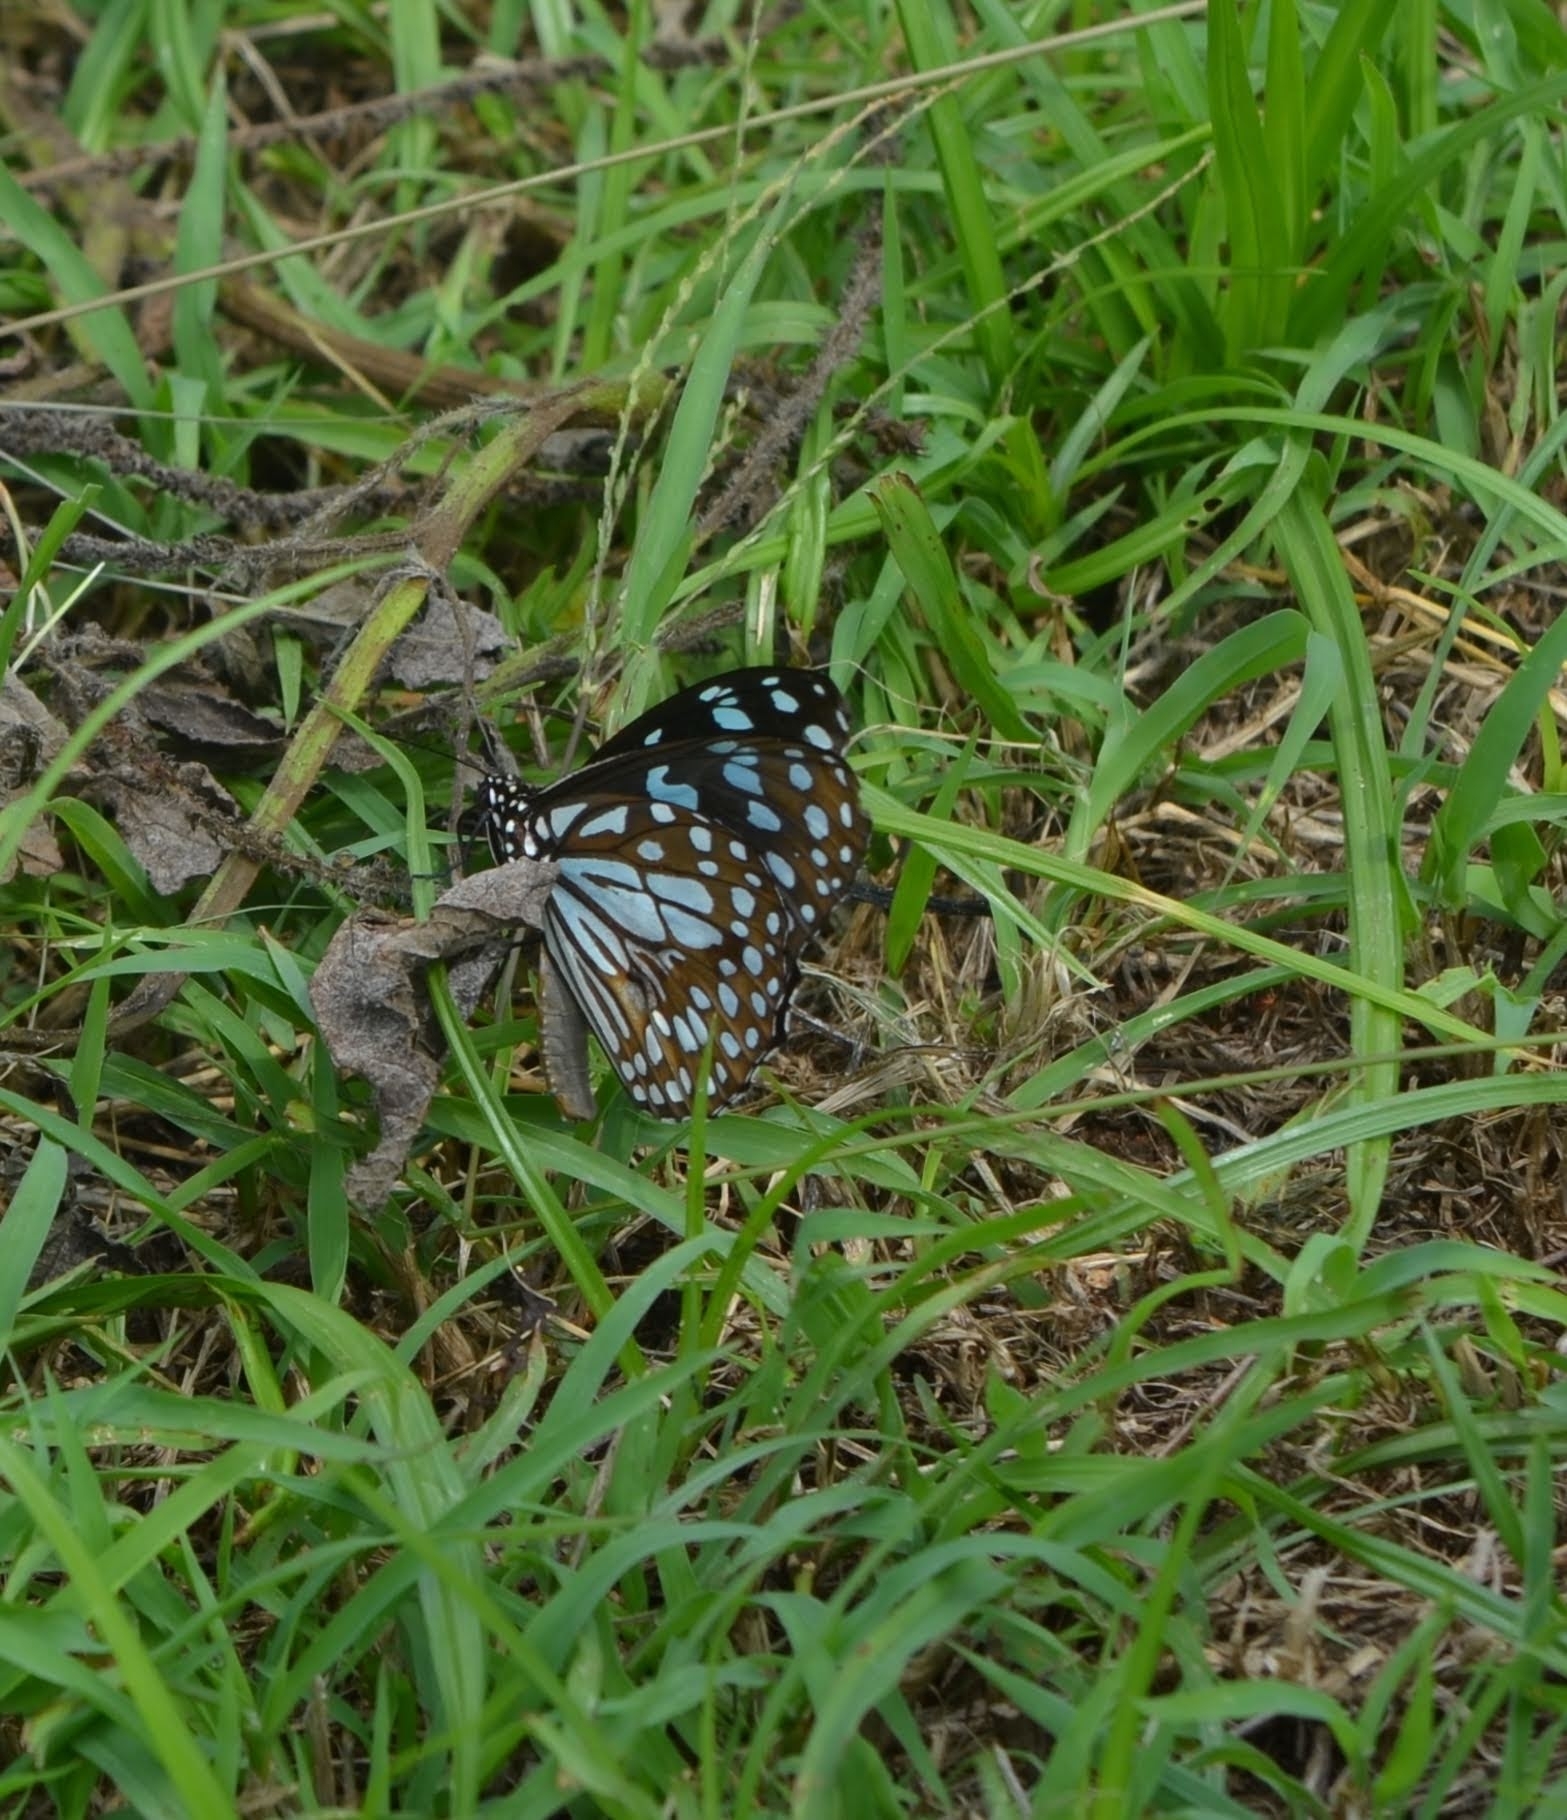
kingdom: Animalia
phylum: Arthropoda
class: Insecta
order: Lepidoptera
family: Nymphalidae
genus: Tirumala
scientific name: Tirumala limniace
